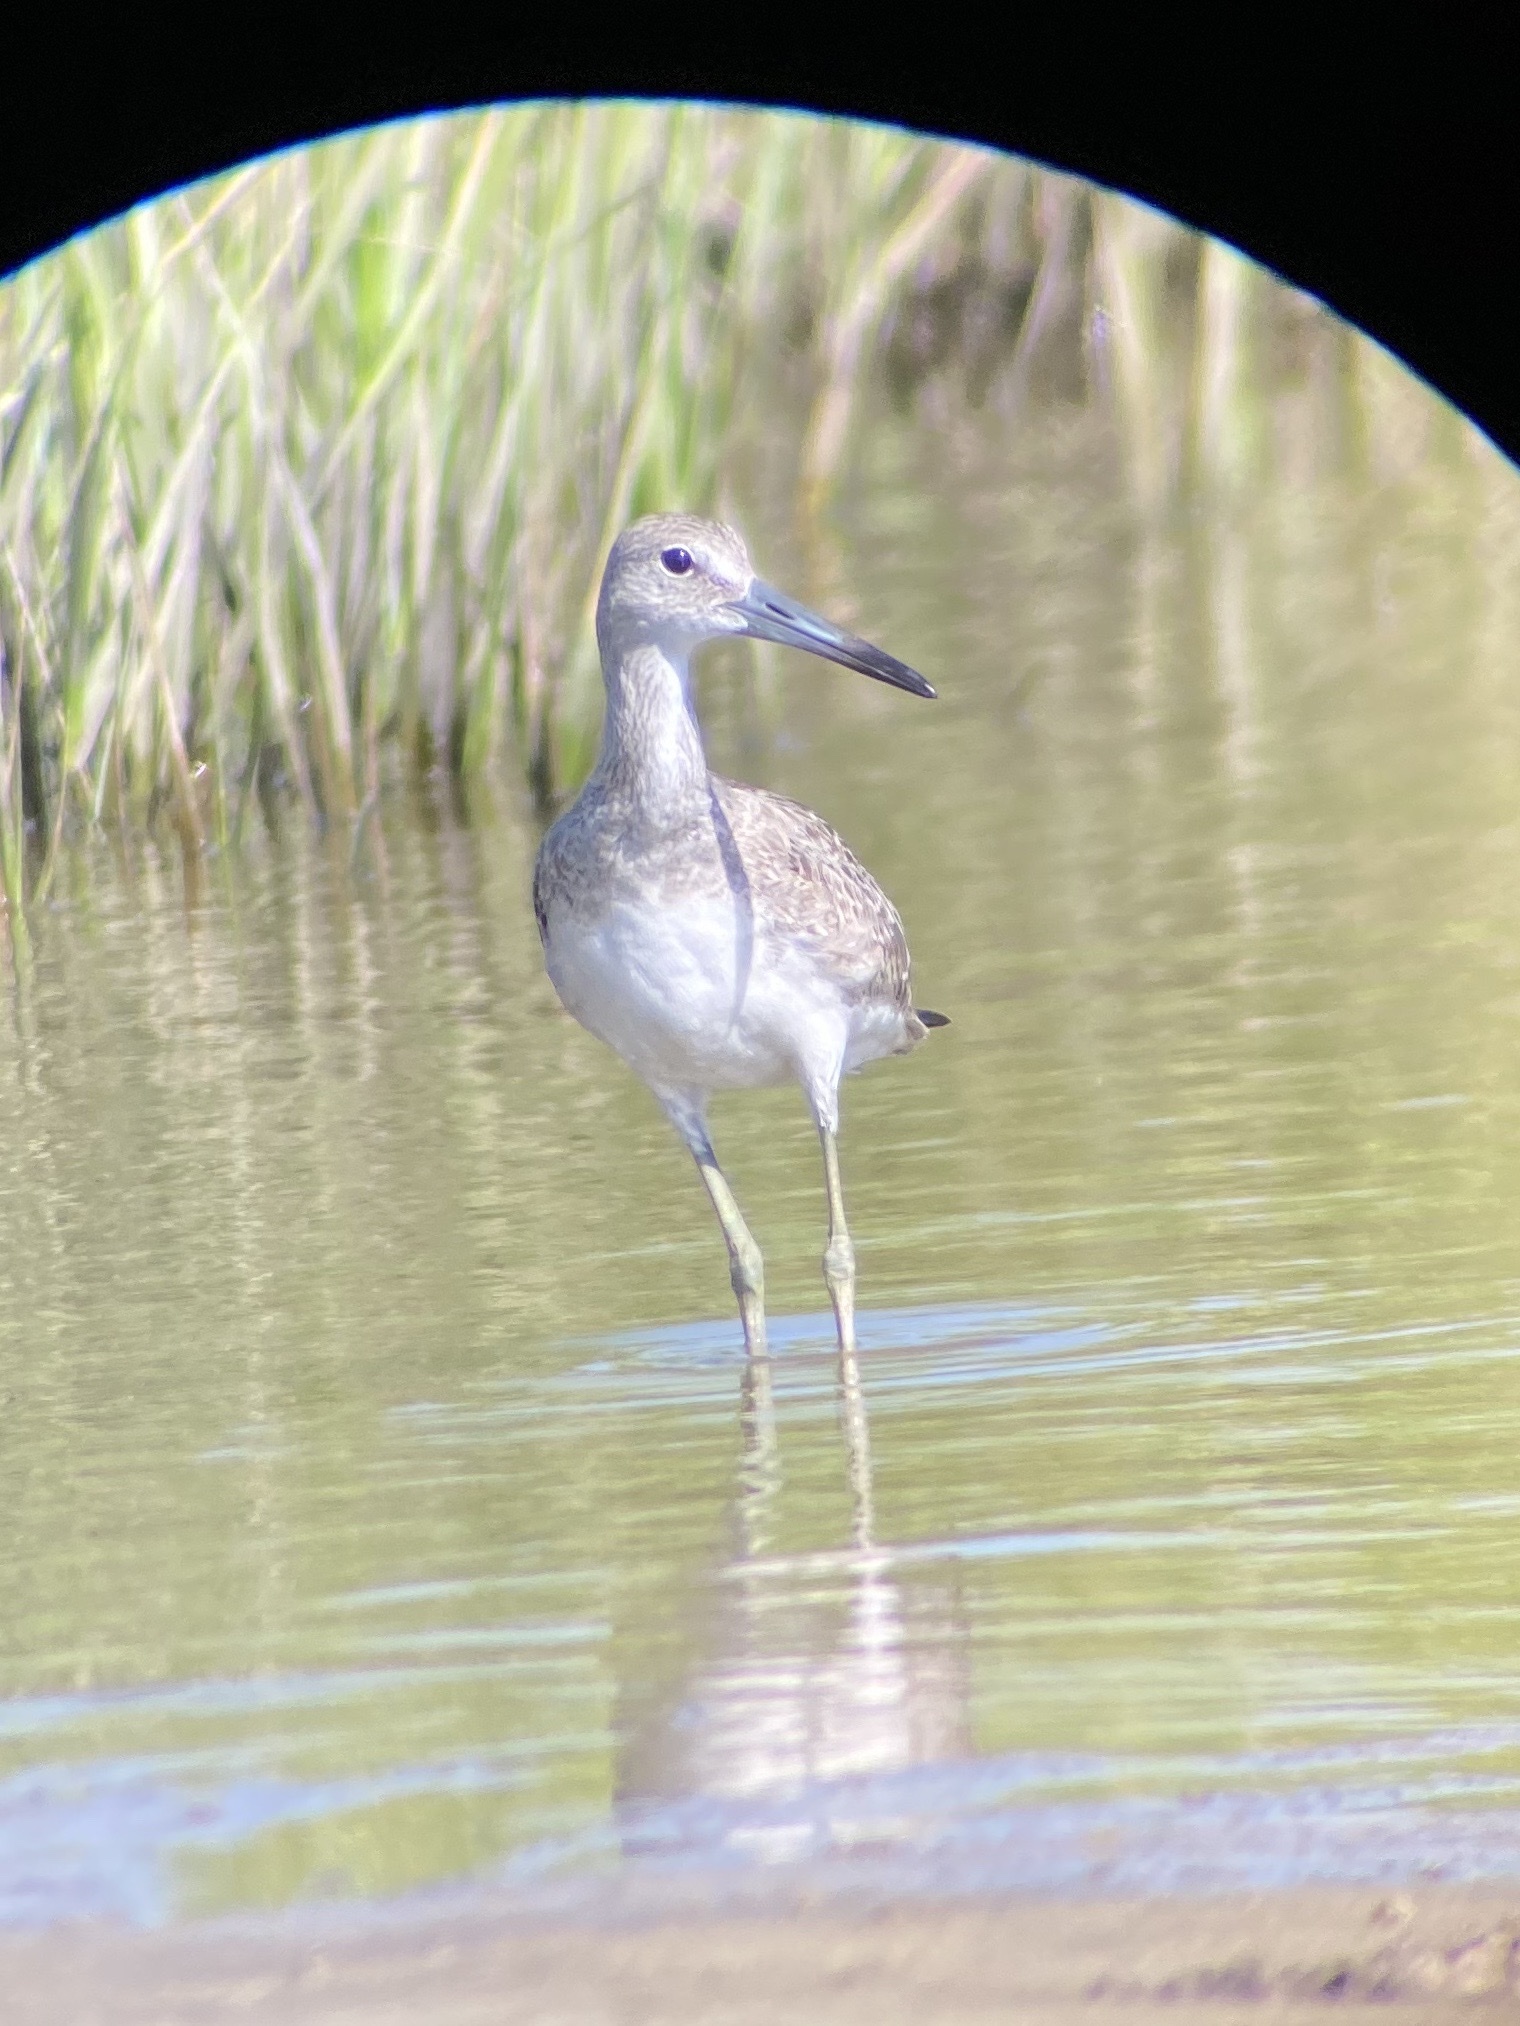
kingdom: Animalia
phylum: Chordata
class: Aves
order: Charadriiformes
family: Scolopacidae
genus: Tringa
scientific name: Tringa semipalmata
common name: Willet
